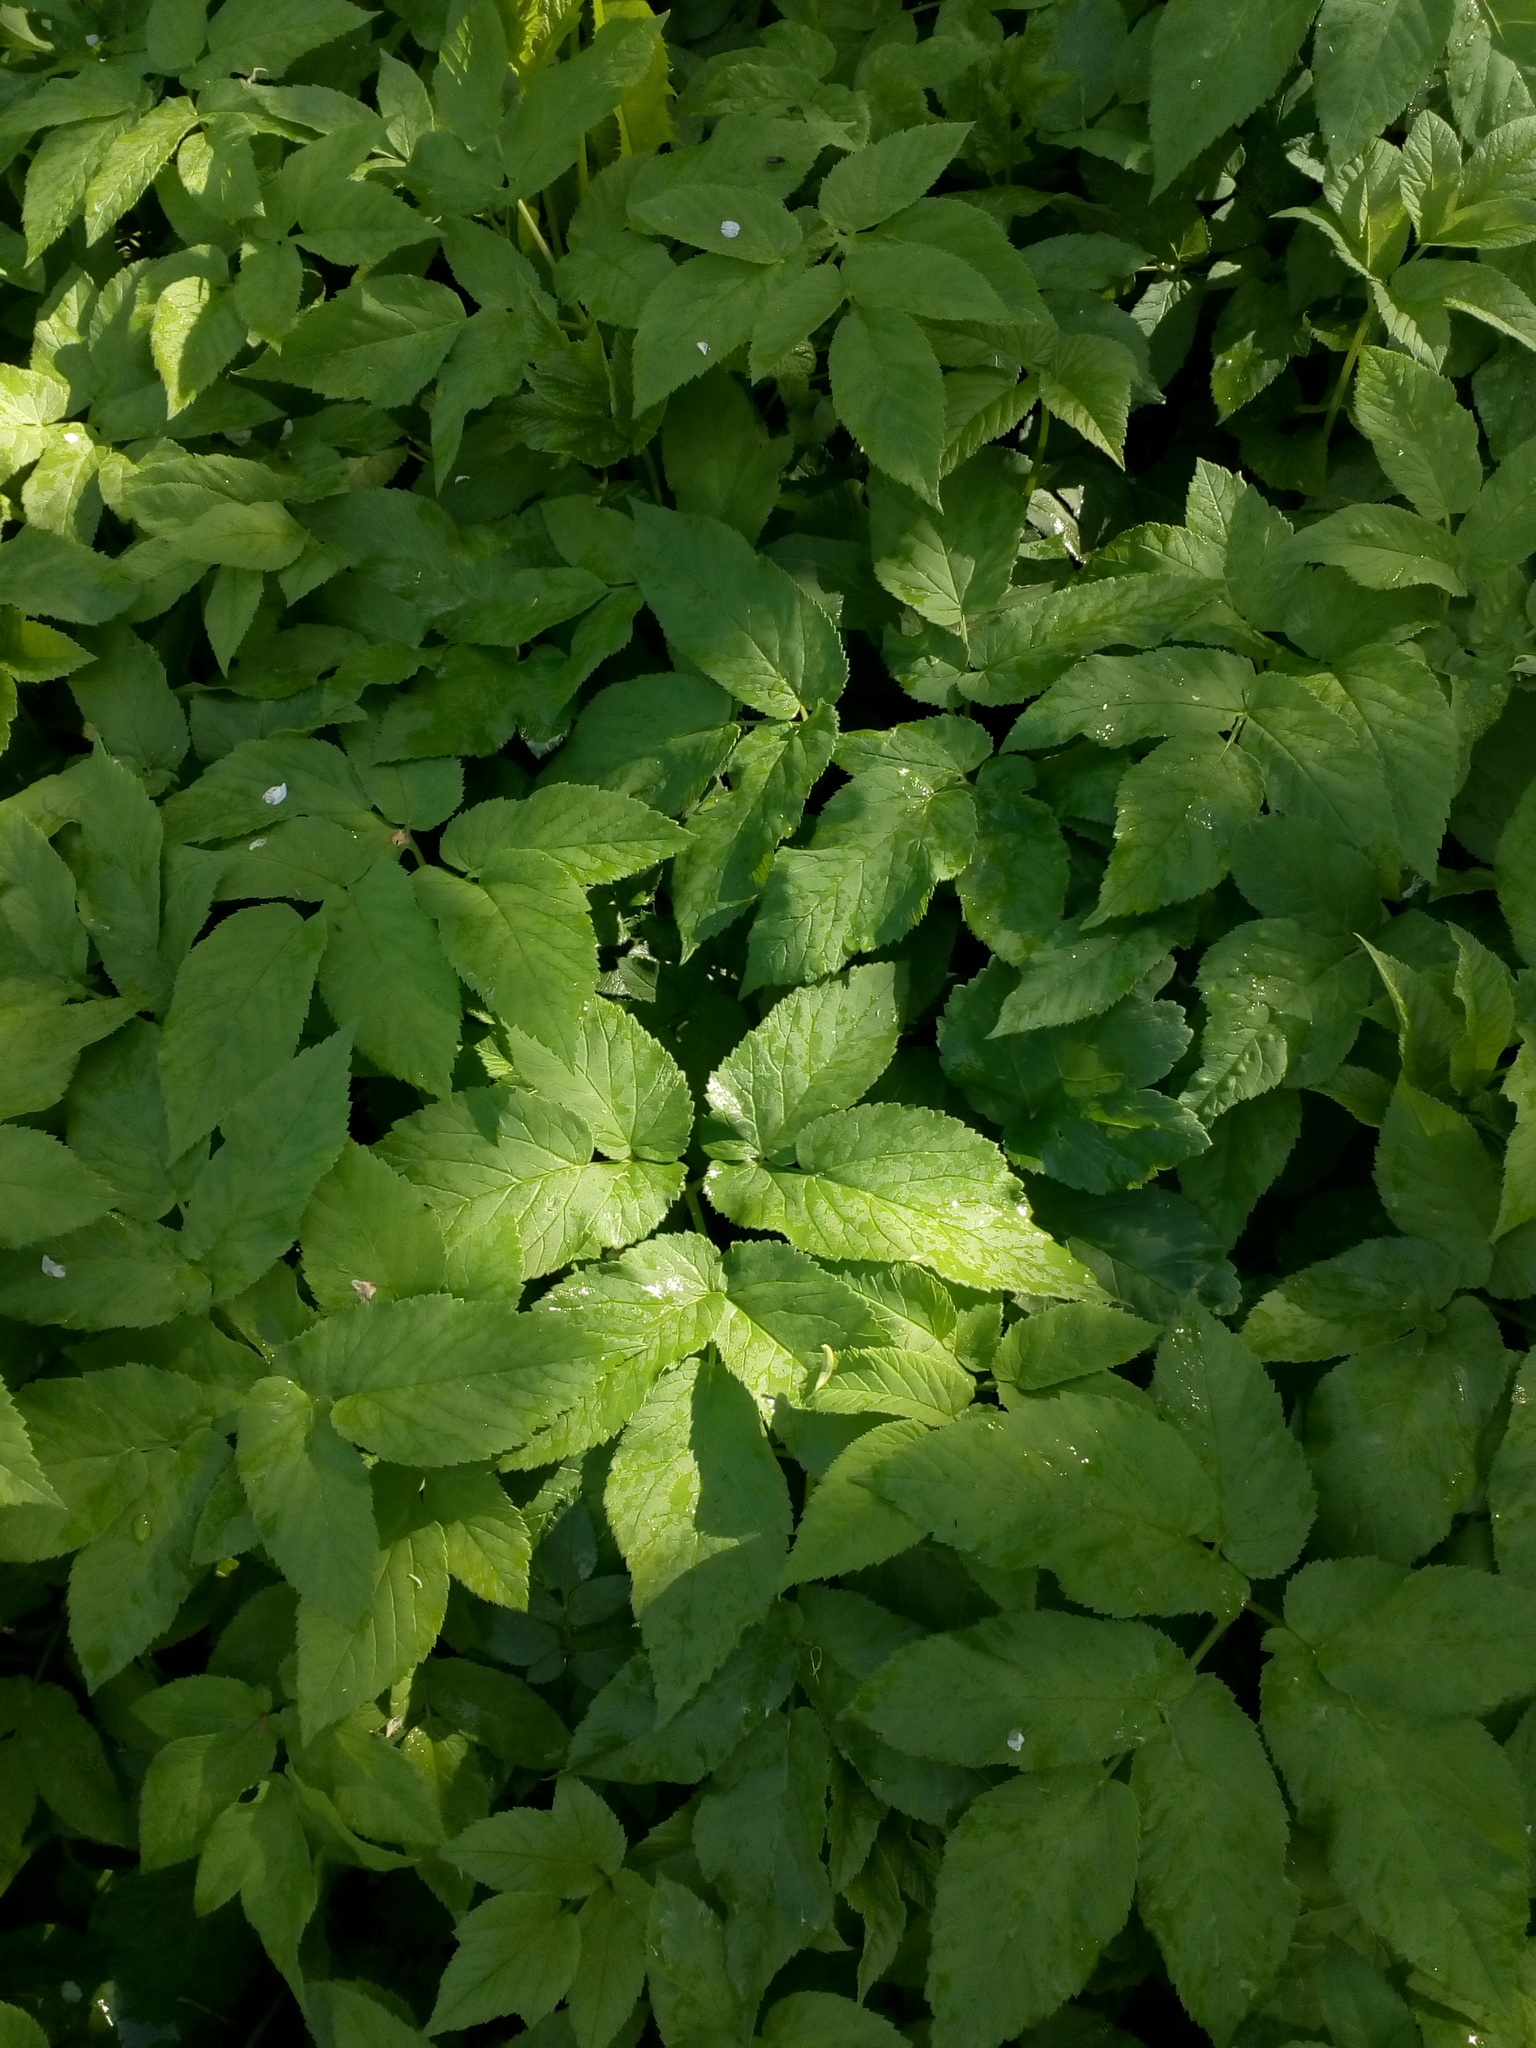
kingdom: Plantae
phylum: Tracheophyta
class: Magnoliopsida
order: Apiales
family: Apiaceae
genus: Aegopodium
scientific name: Aegopodium podagraria
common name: Ground-elder
